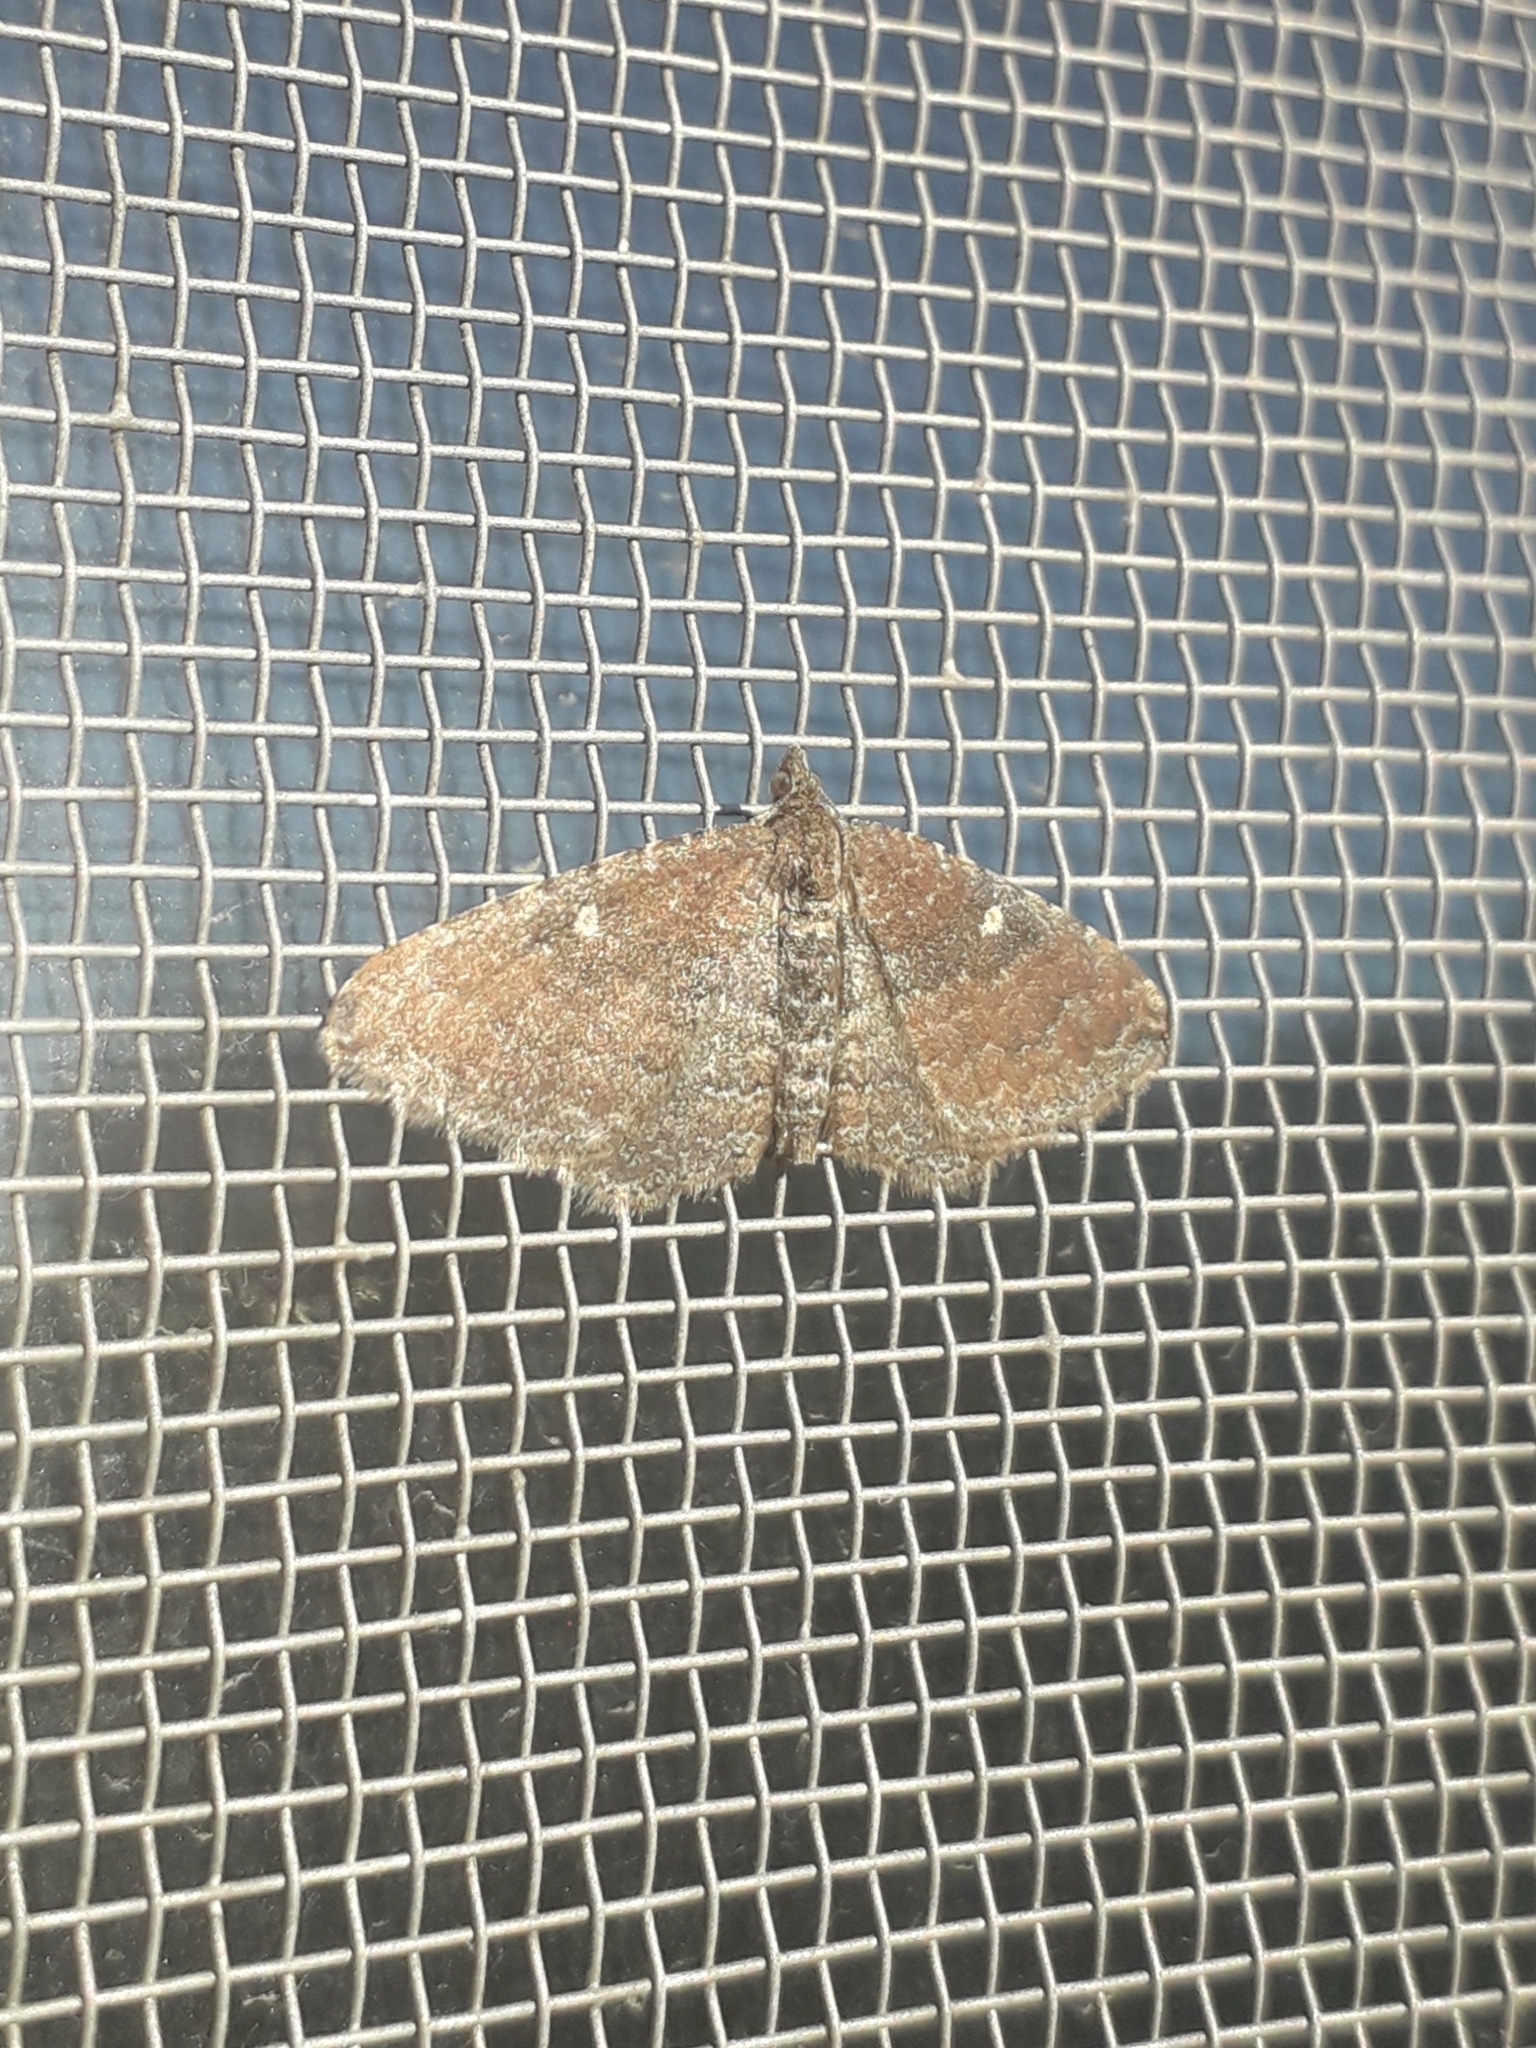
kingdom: Animalia
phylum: Arthropoda
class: Insecta
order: Lepidoptera
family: Geometridae
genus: Orthonama
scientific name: Orthonama obstipata
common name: The gem
